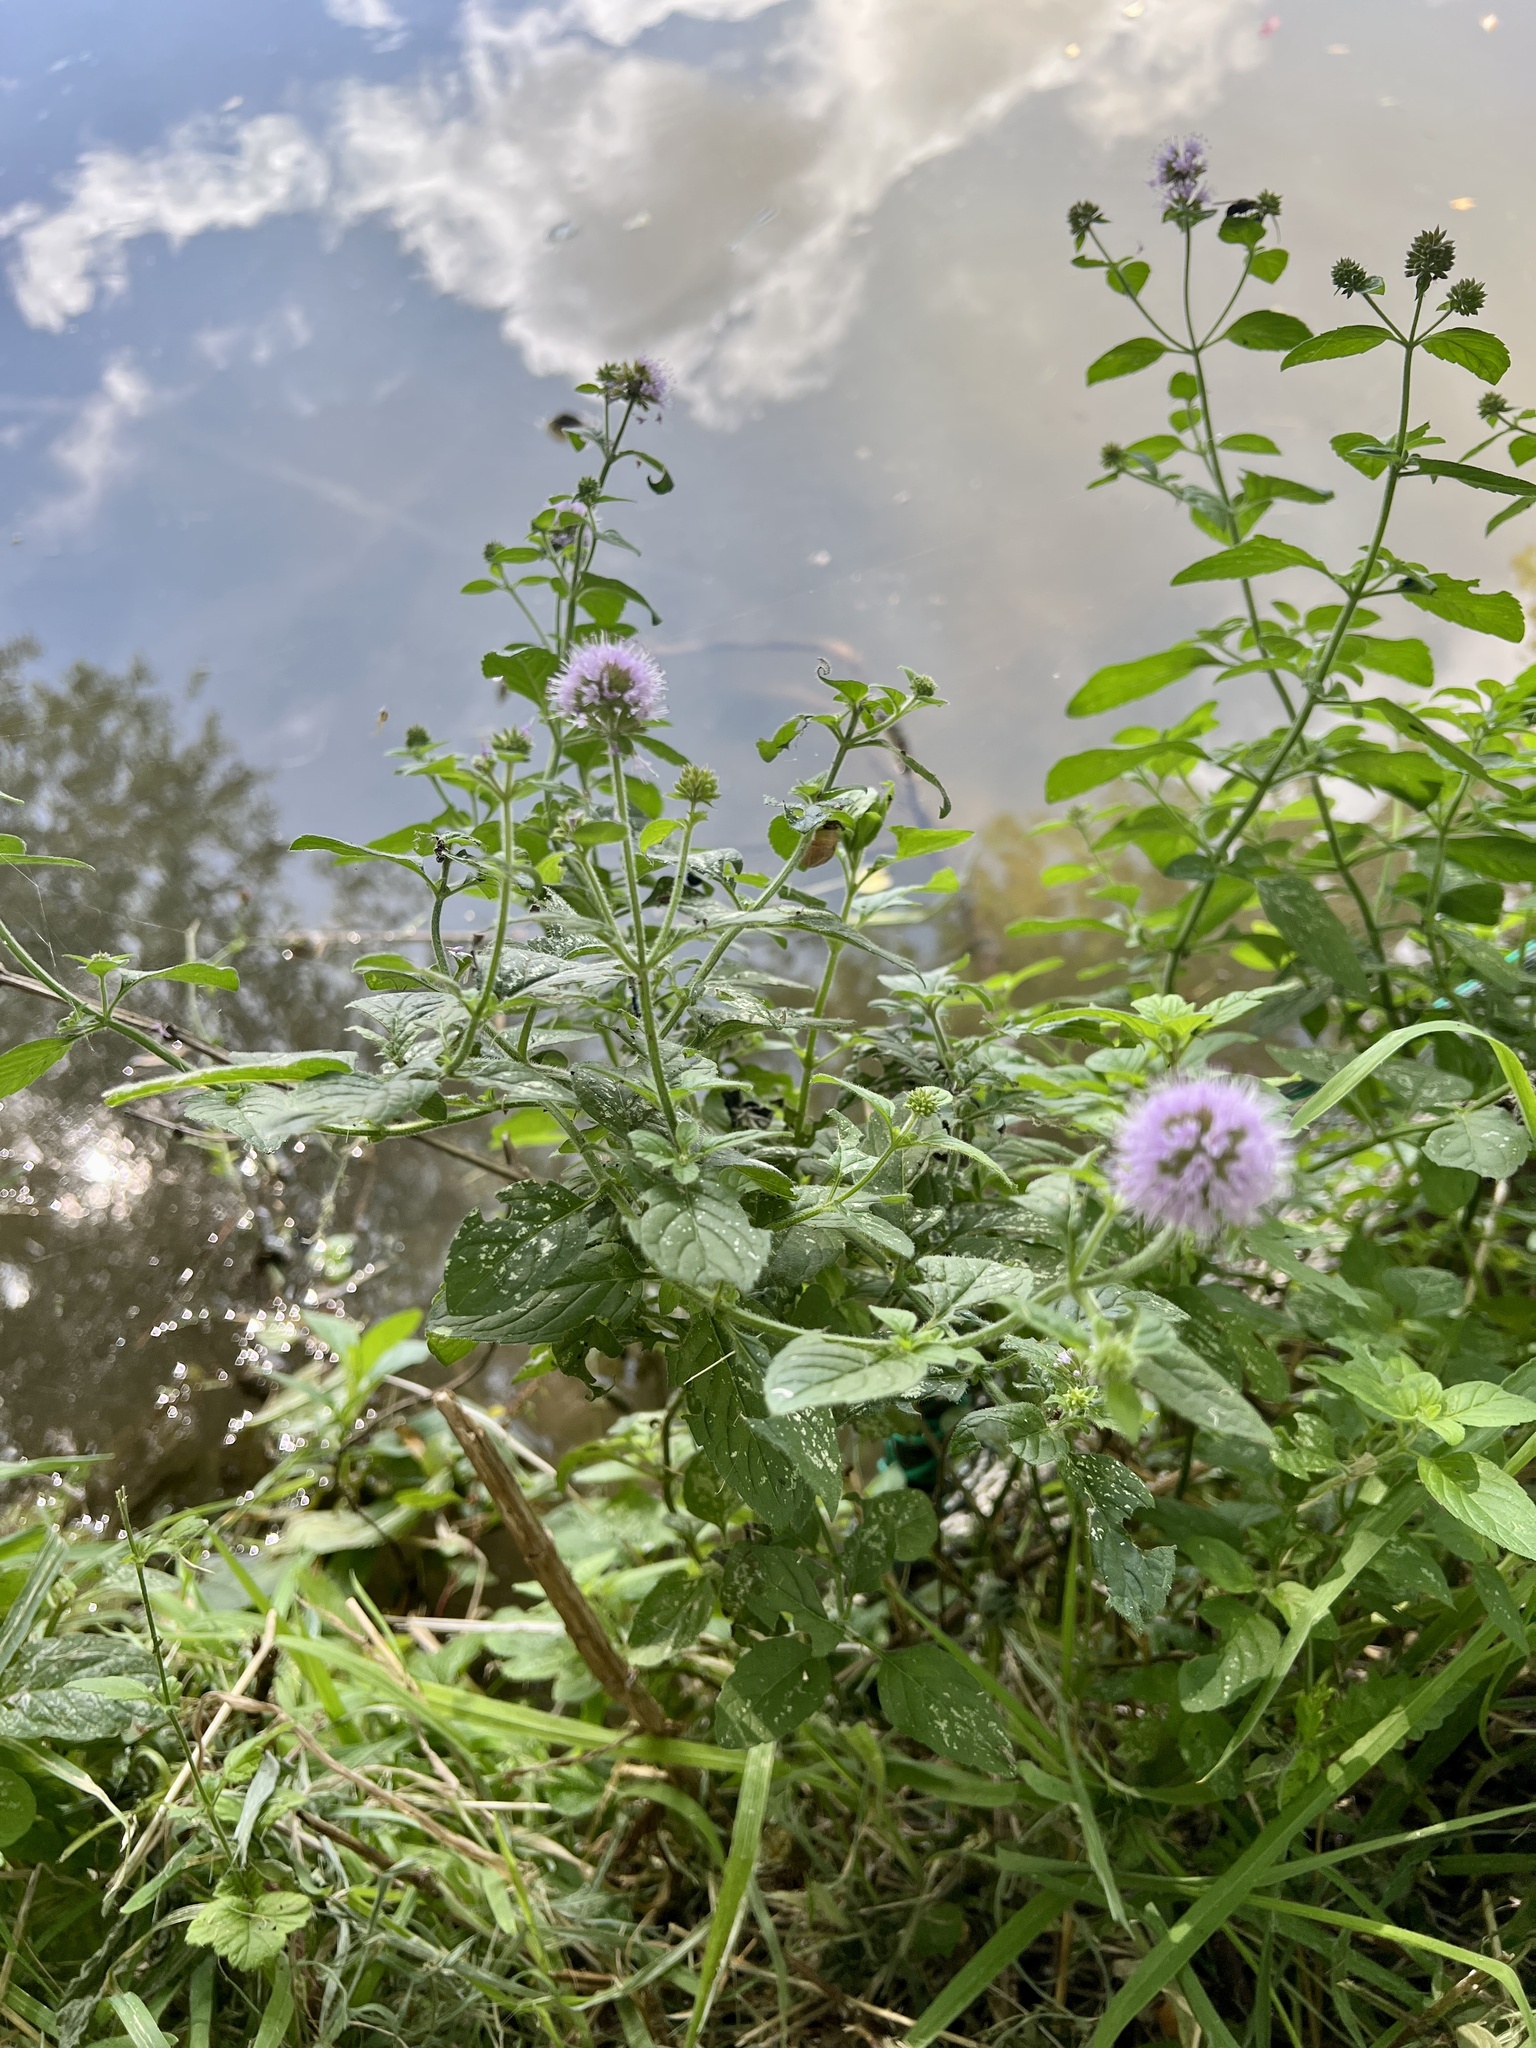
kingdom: Plantae
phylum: Tracheophyta
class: Magnoliopsida
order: Lamiales
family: Lamiaceae
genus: Mentha
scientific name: Mentha aquatica
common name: Water mint
